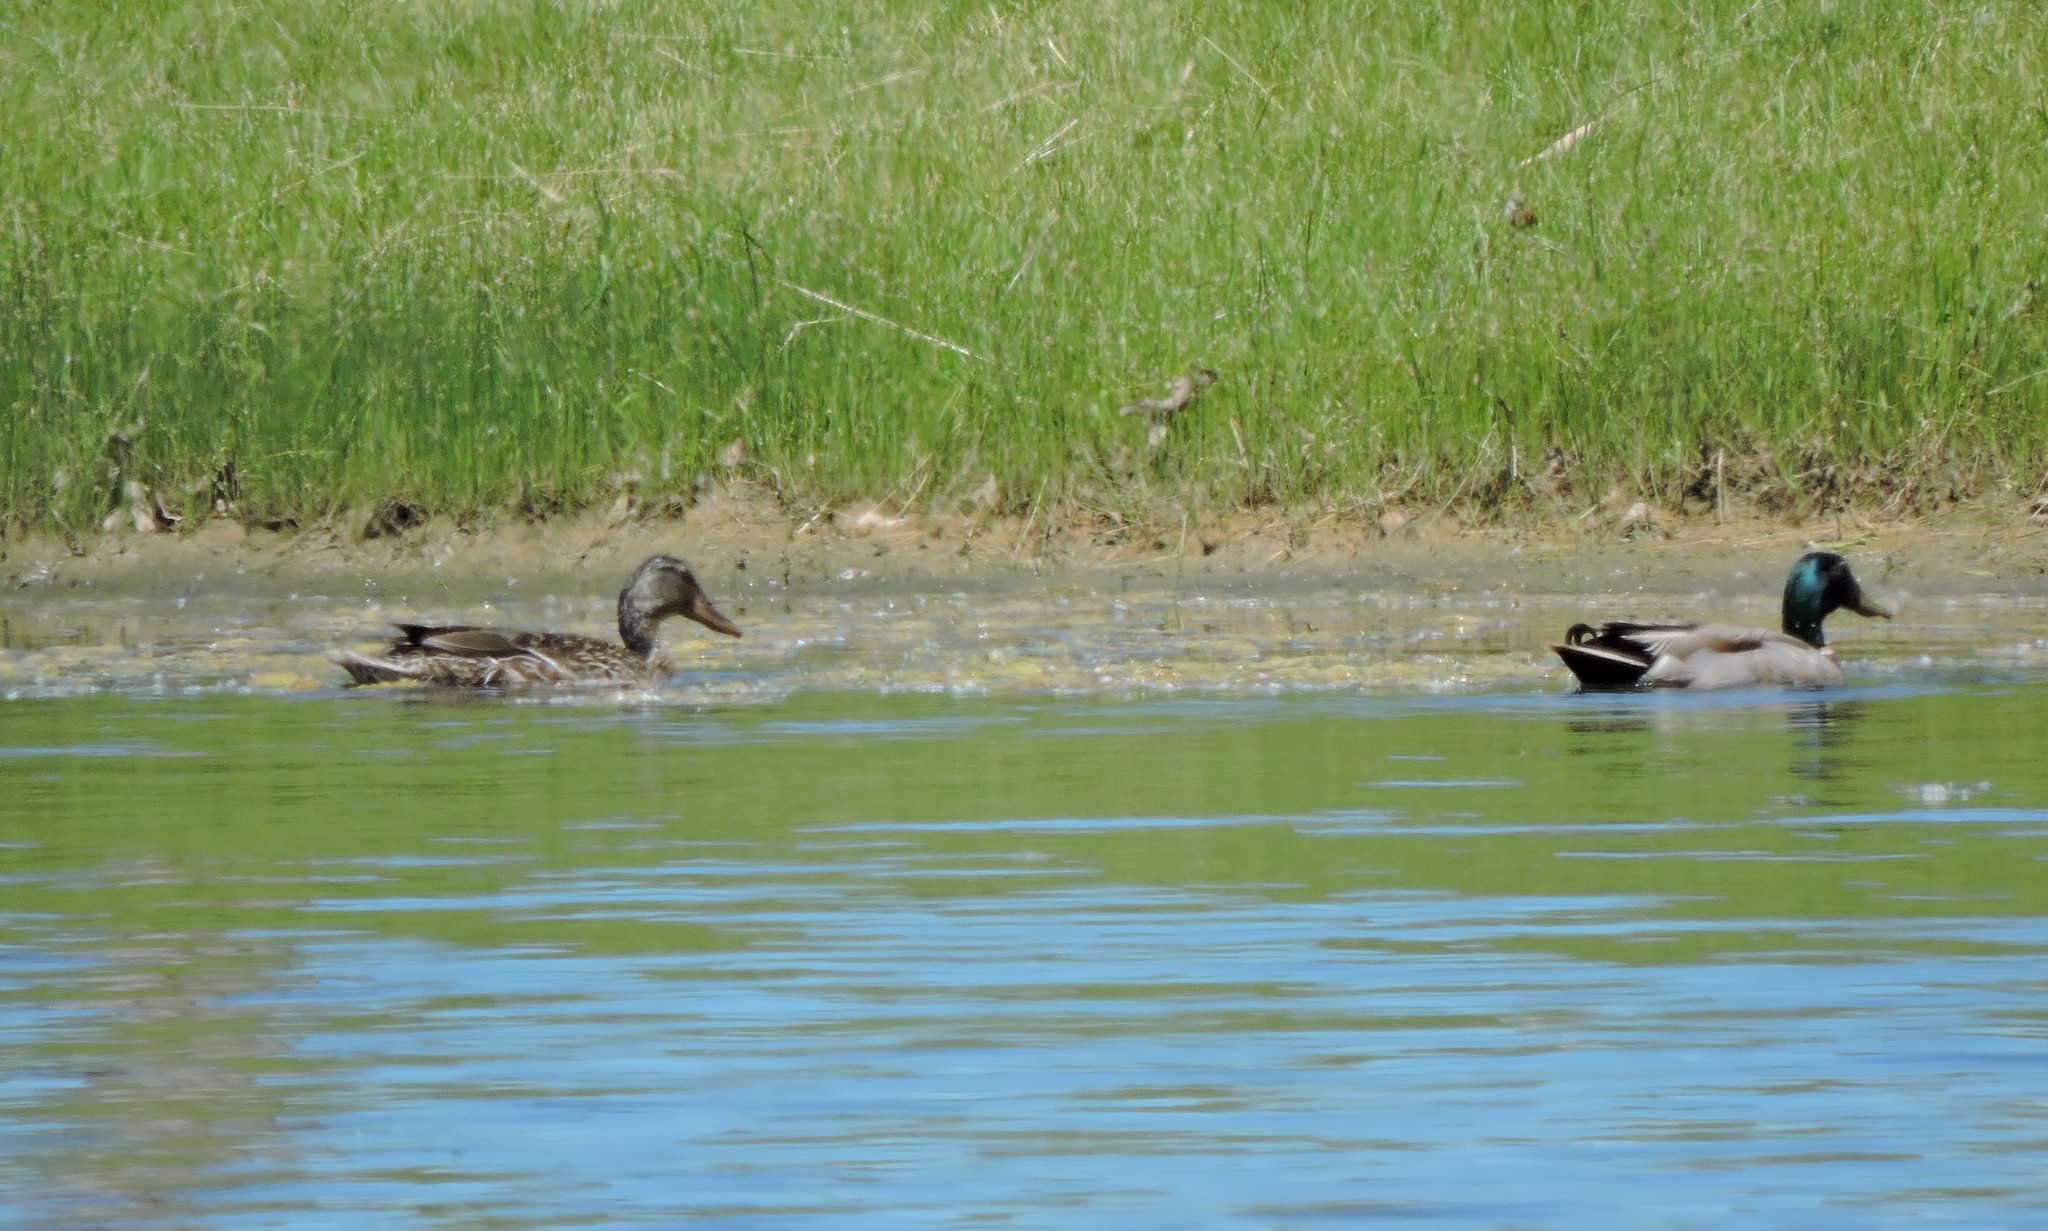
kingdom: Animalia
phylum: Chordata
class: Aves
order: Anseriformes
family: Anatidae
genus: Anas
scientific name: Anas platyrhynchos
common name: Mallard
